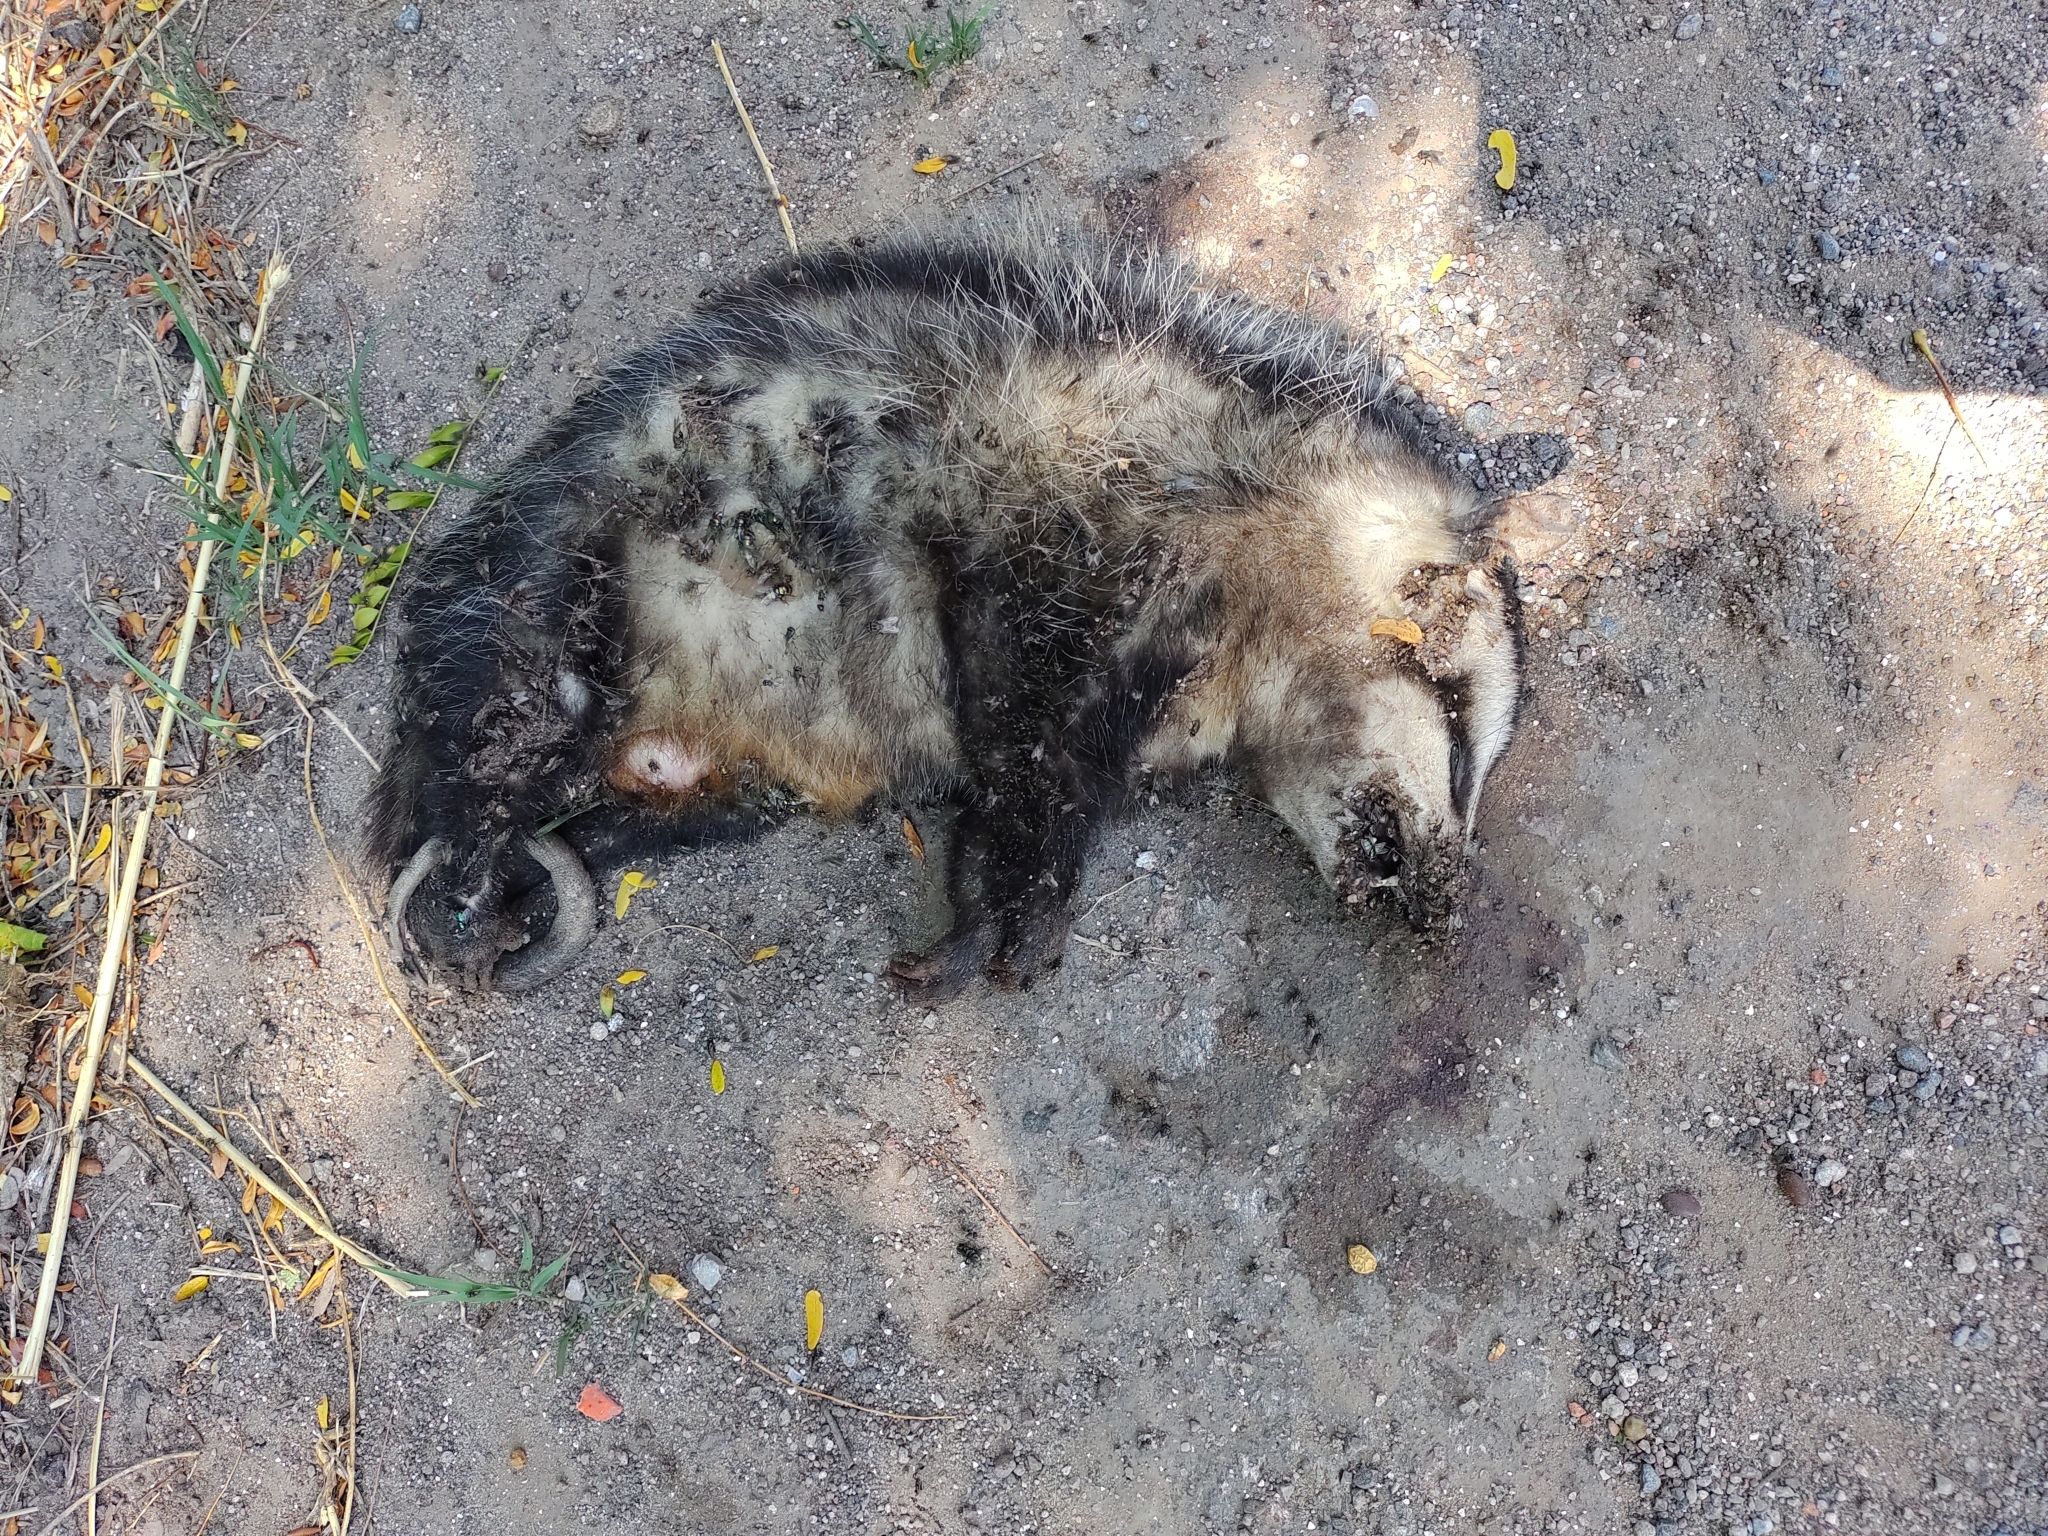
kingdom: Animalia
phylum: Chordata
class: Mammalia
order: Didelphimorphia
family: Didelphidae
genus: Didelphis
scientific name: Didelphis albiventris
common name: White-eared opossum
